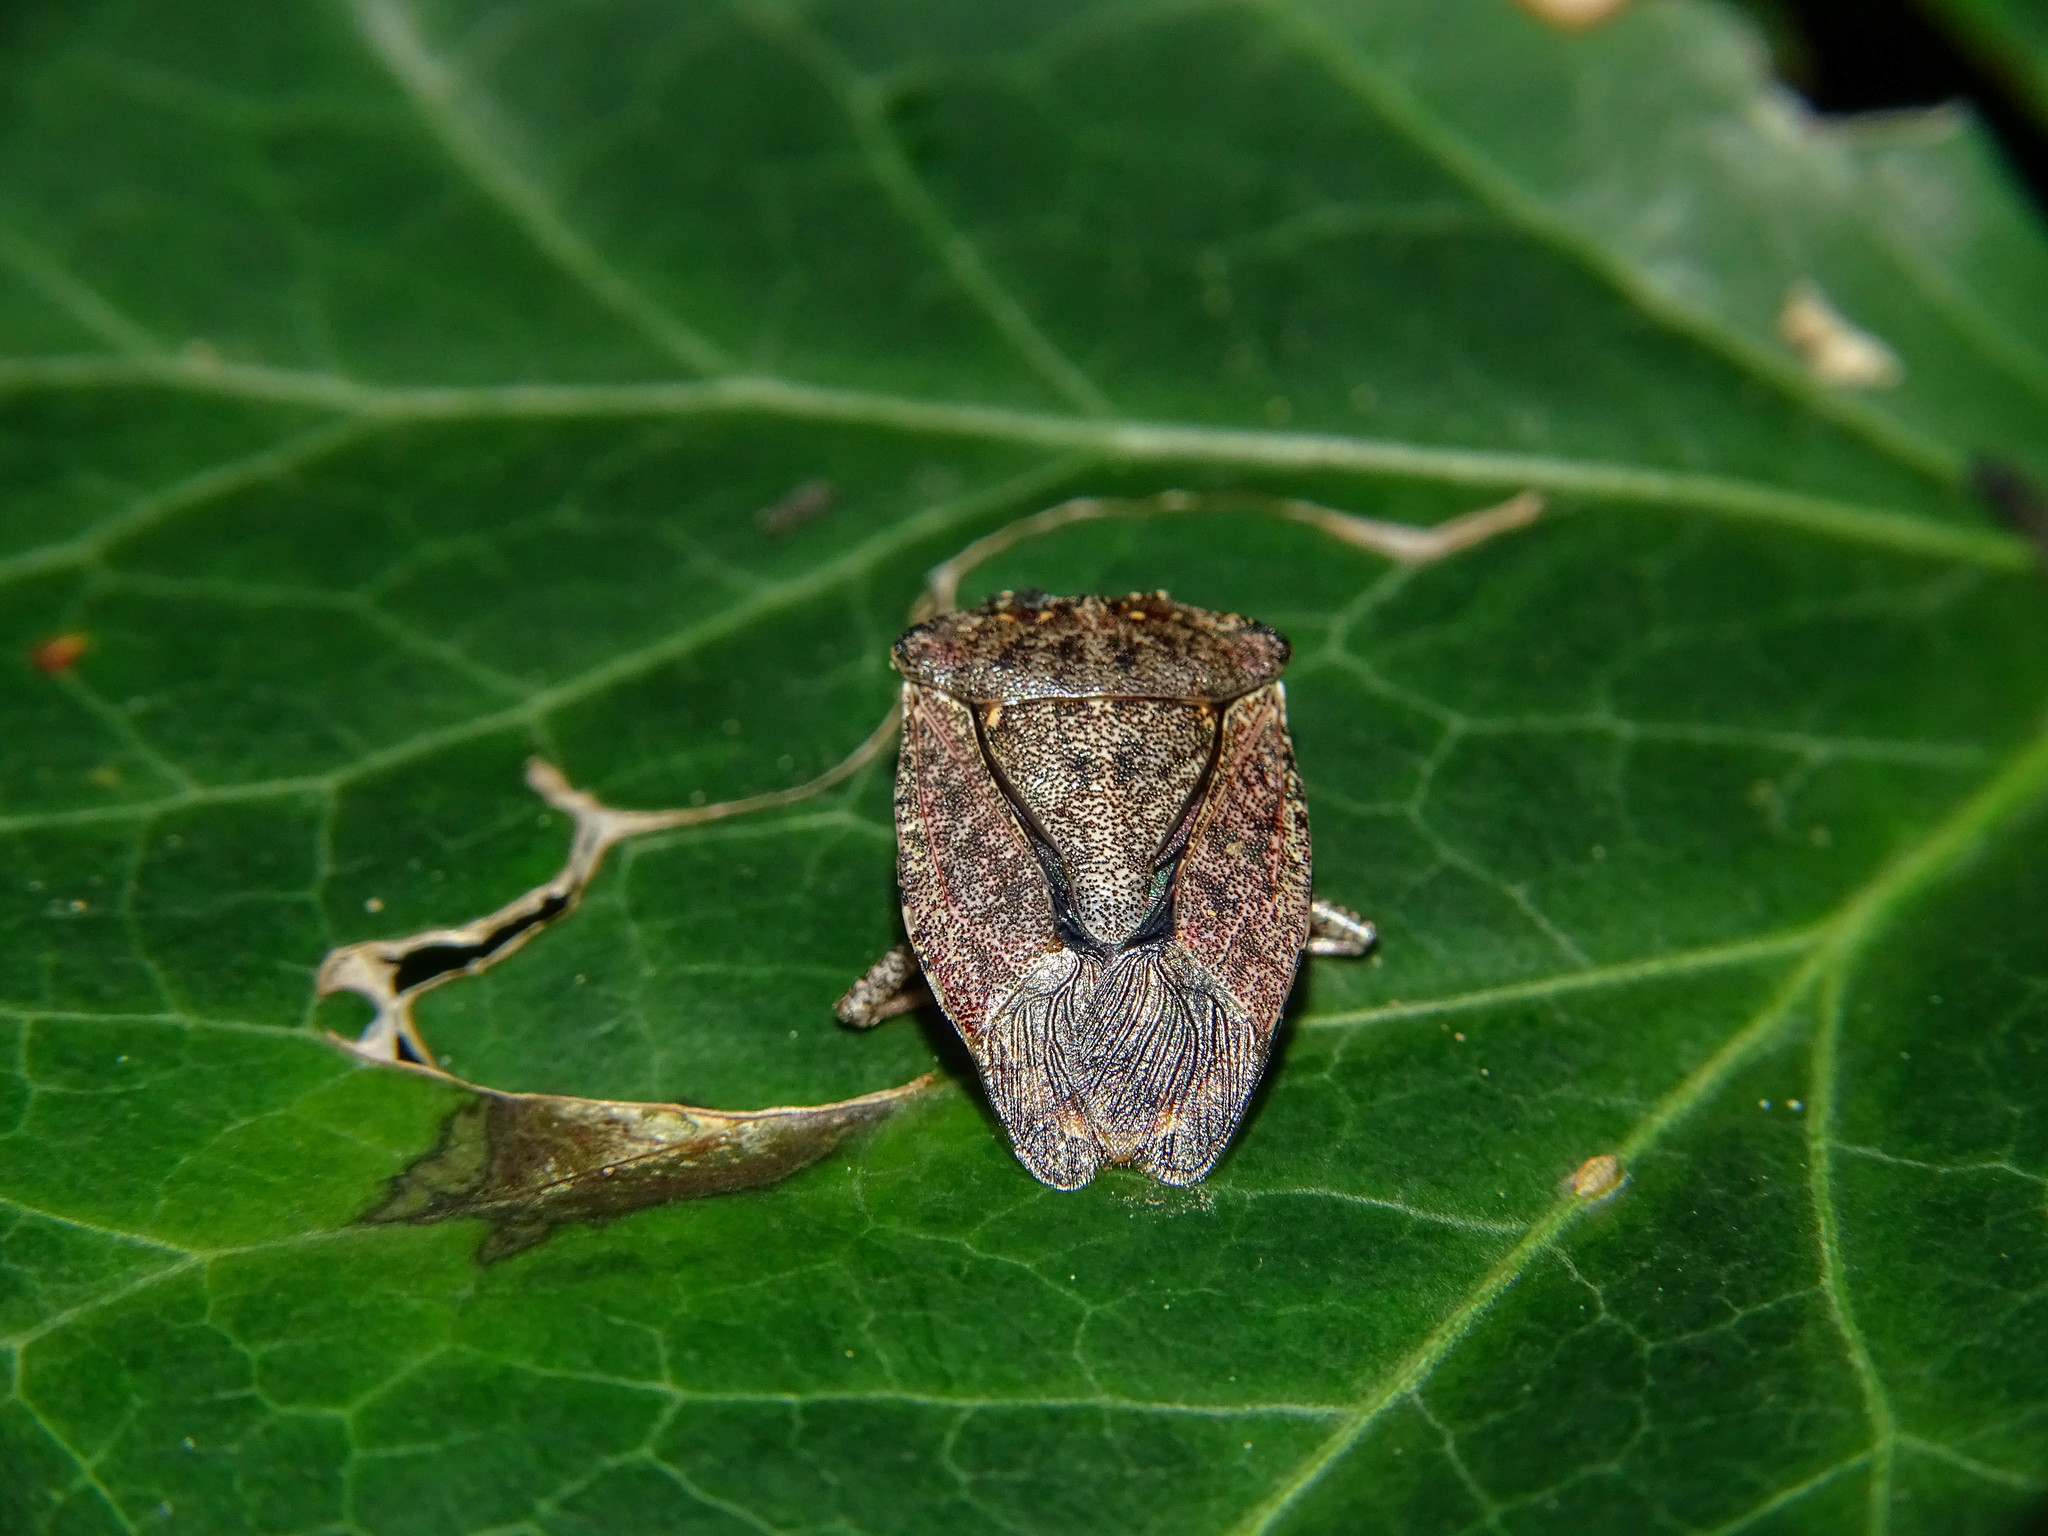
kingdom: Animalia
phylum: Arthropoda
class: Insecta
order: Hemiptera
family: Pentatomidae
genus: Halyomorpha
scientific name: Halyomorpha halys
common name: Brown marmorated stink bug
